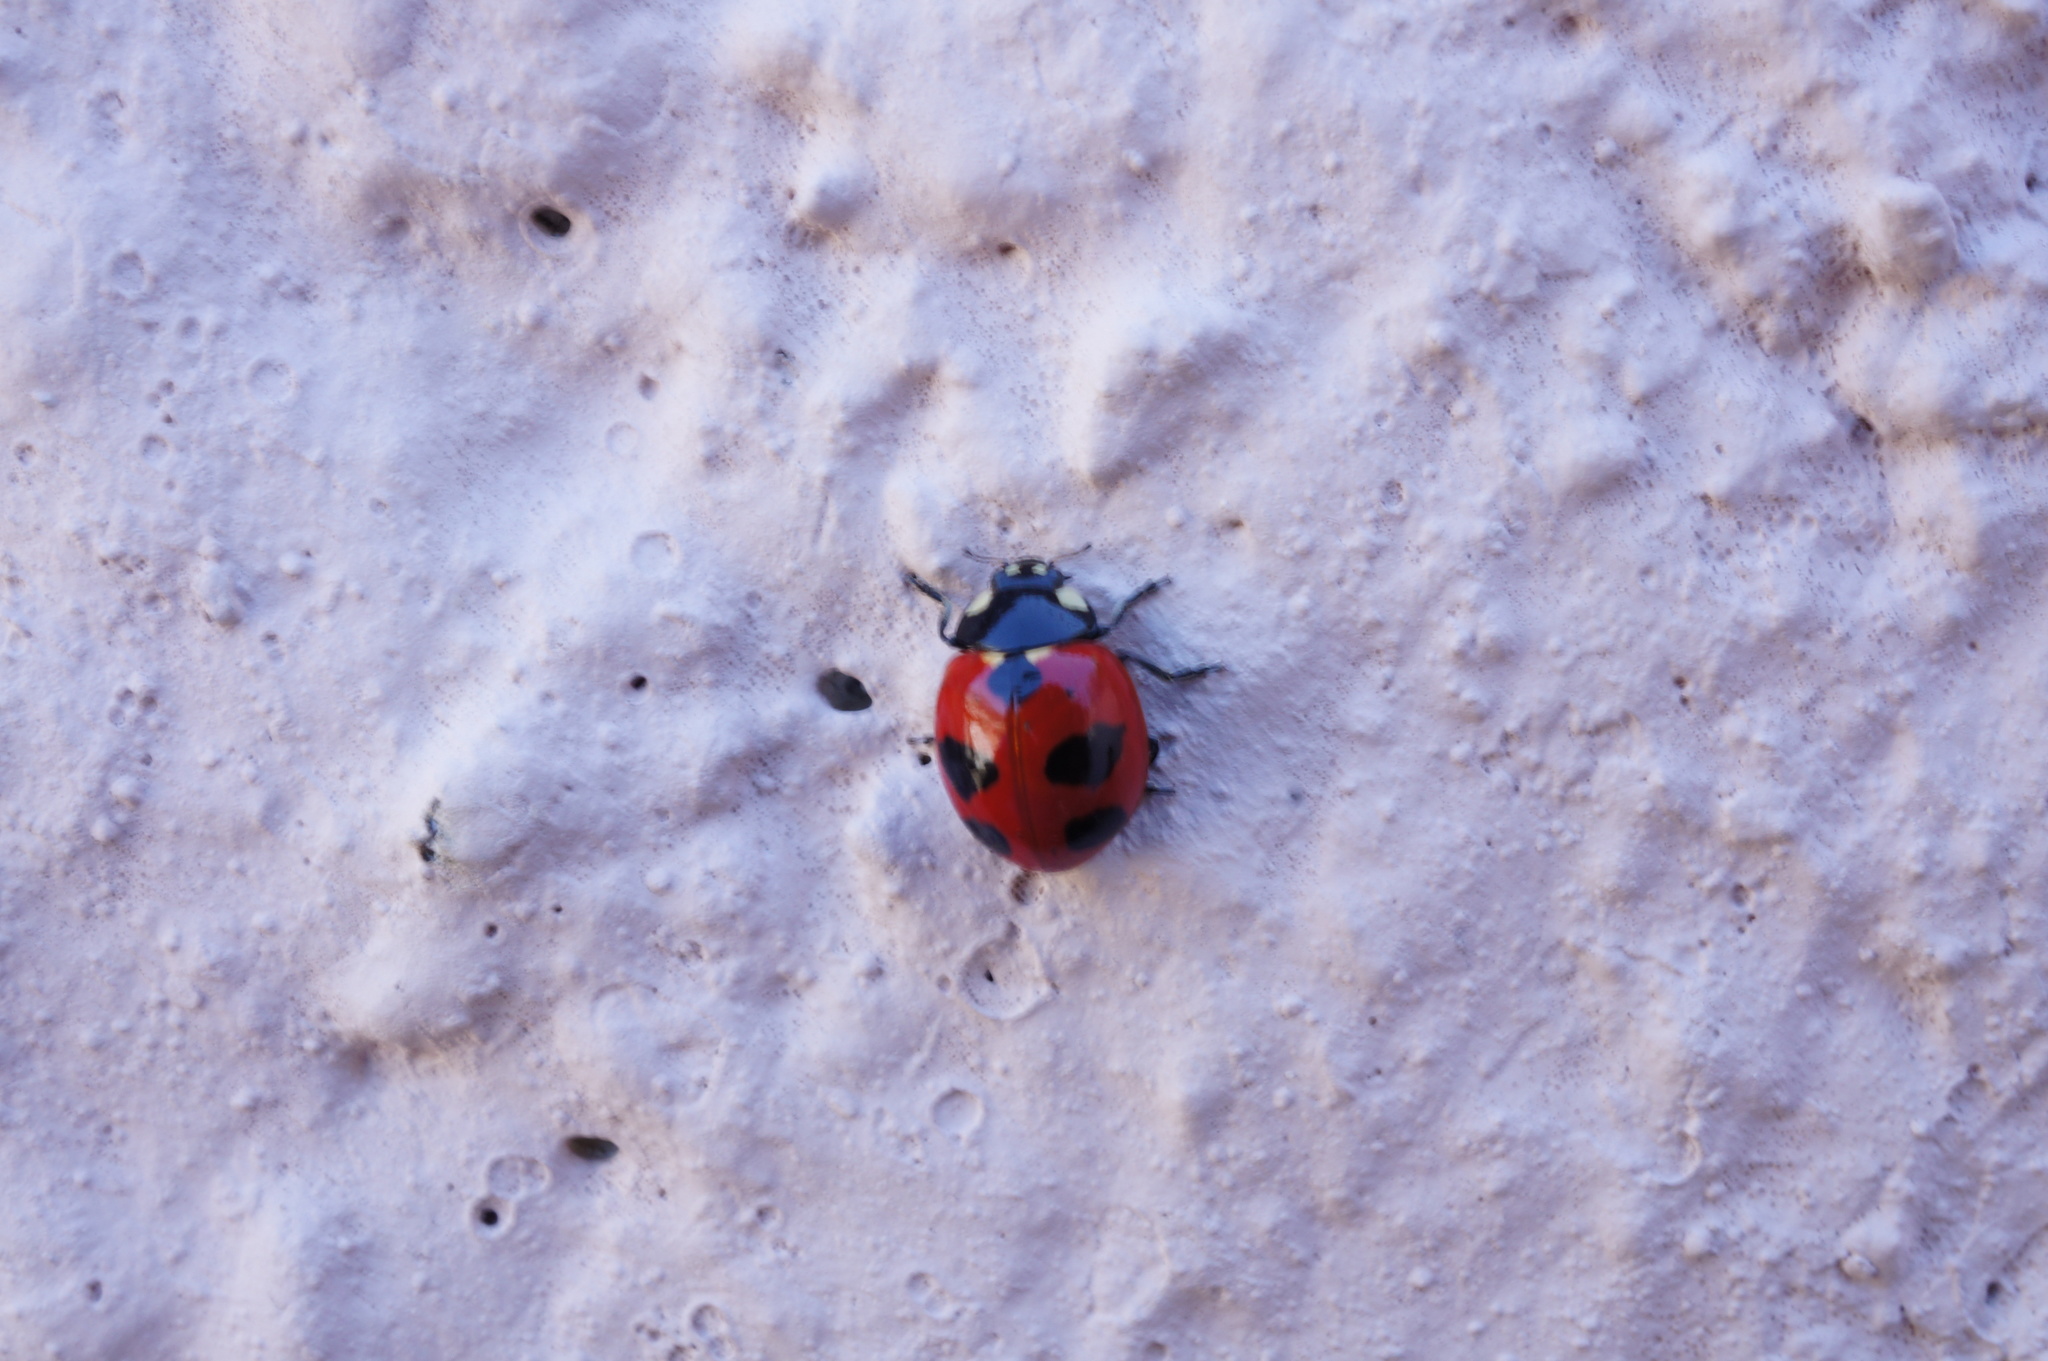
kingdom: Animalia
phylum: Arthropoda
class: Insecta
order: Coleoptera
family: Coccinellidae
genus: Coccinella
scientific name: Coccinella monticola
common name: Mountain lady beetle
